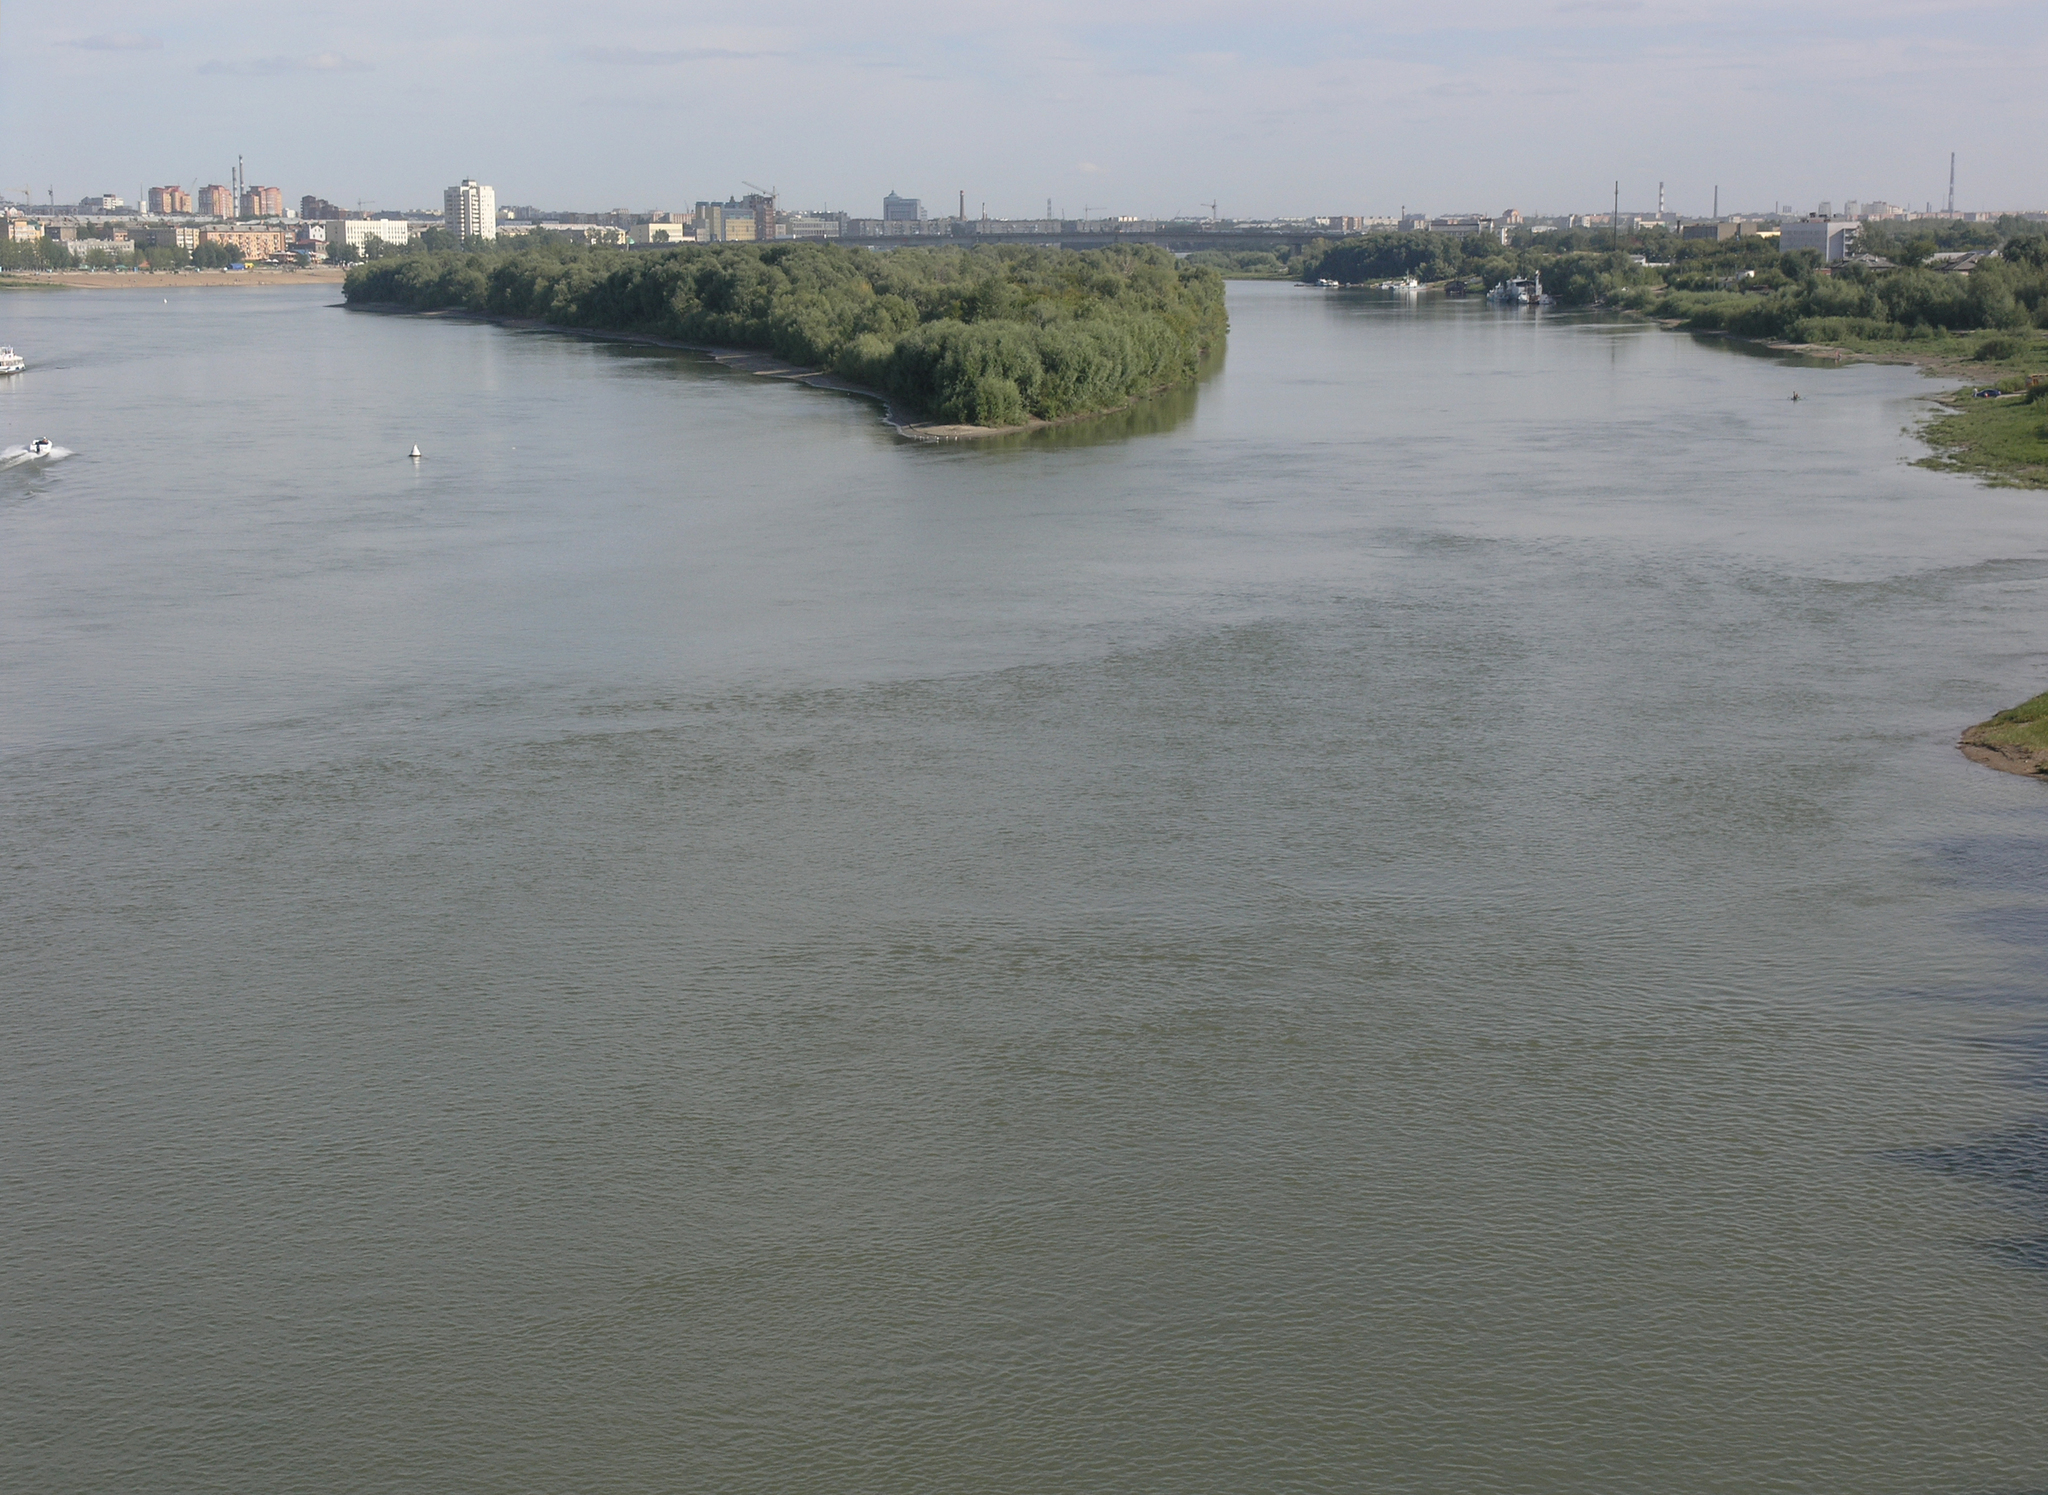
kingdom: Plantae
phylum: Tracheophyta
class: Magnoliopsida
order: Malpighiales
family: Salicaceae
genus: Salix
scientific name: Salix alba
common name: White willow
